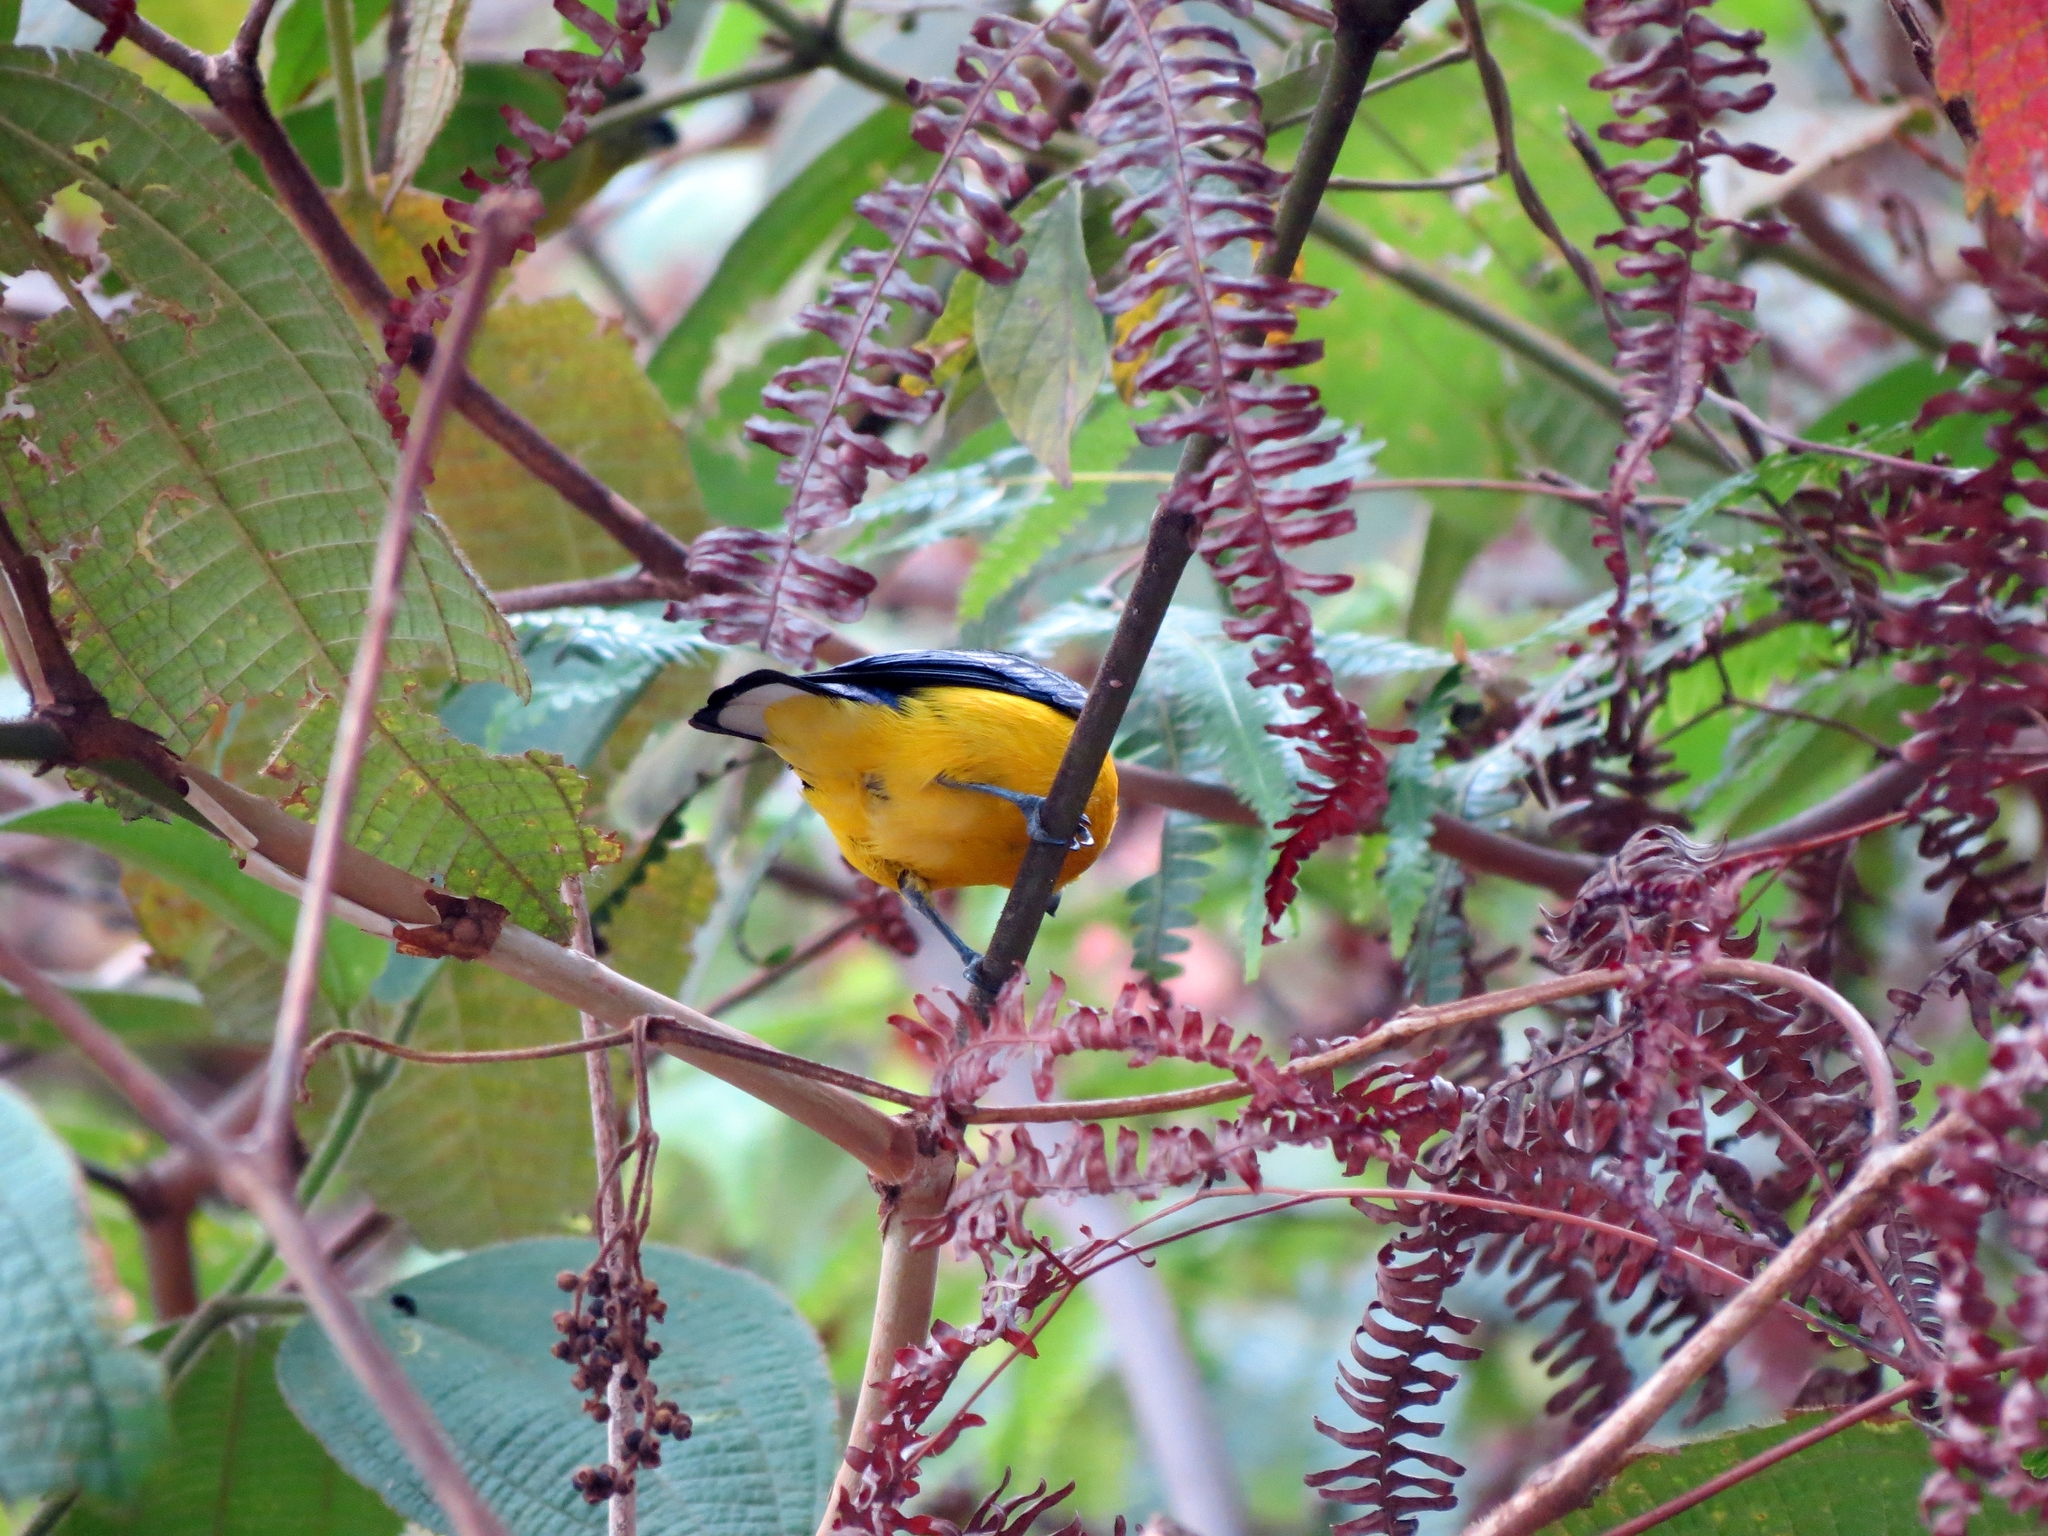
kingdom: Animalia
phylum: Chordata
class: Aves
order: Passeriformes
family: Fringillidae
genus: Euphonia
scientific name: Euphonia laniirostris
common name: Thick-billed euphonia
